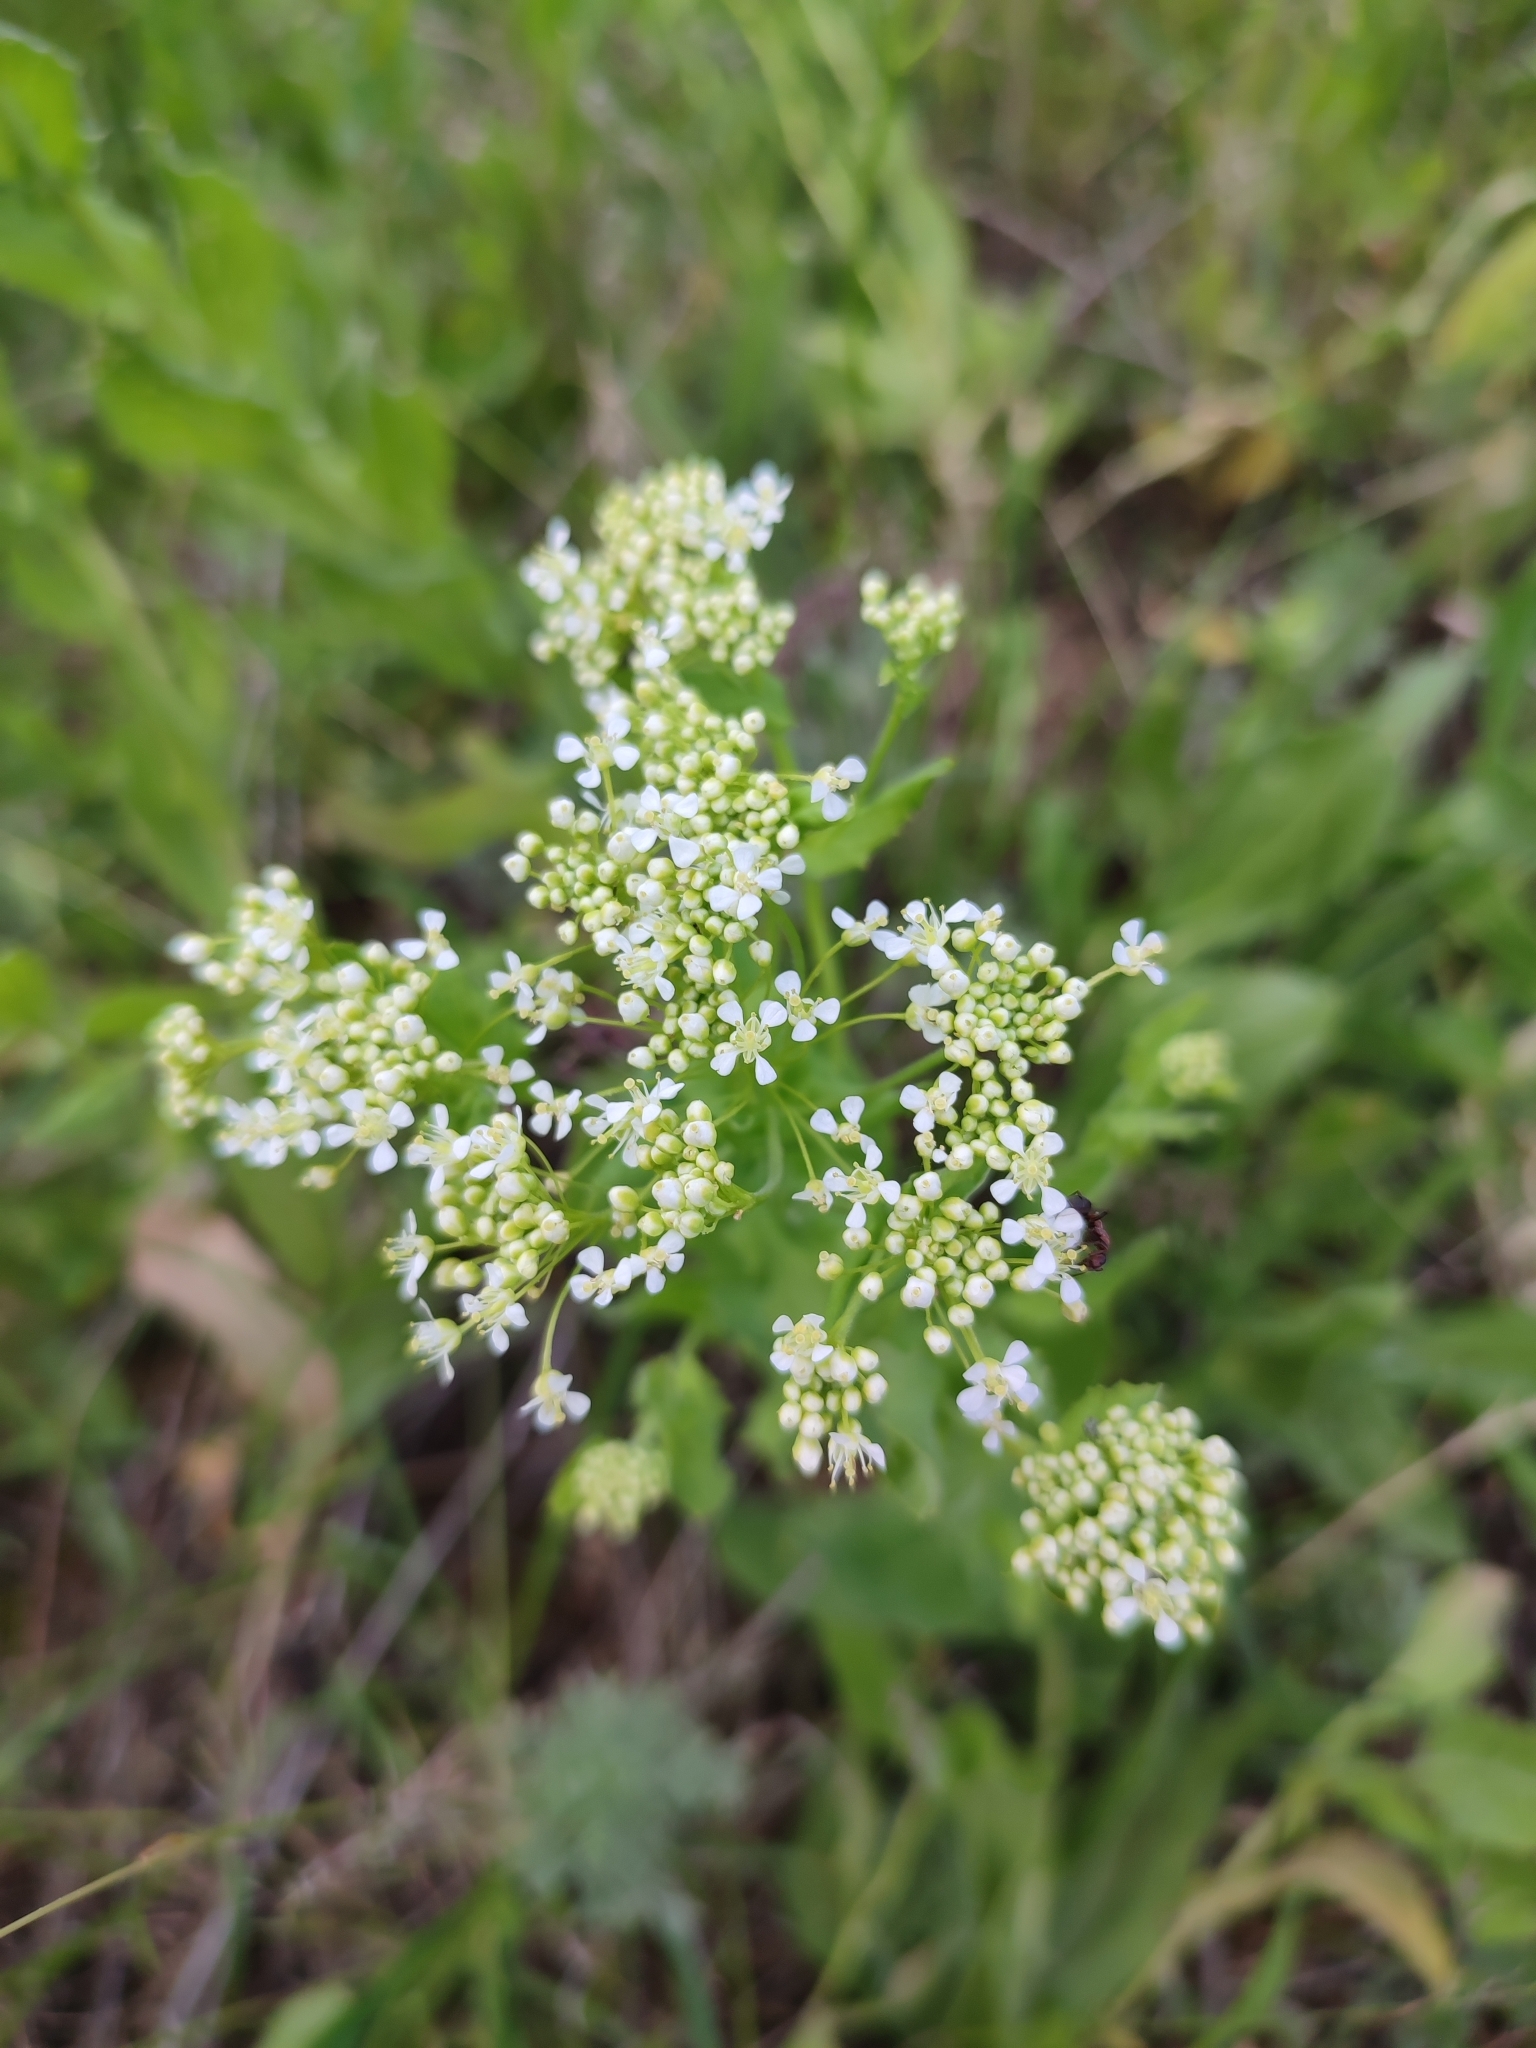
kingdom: Plantae
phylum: Tracheophyta
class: Magnoliopsida
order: Brassicales
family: Brassicaceae
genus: Lepidium
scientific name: Lepidium draba
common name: Hoary cress
